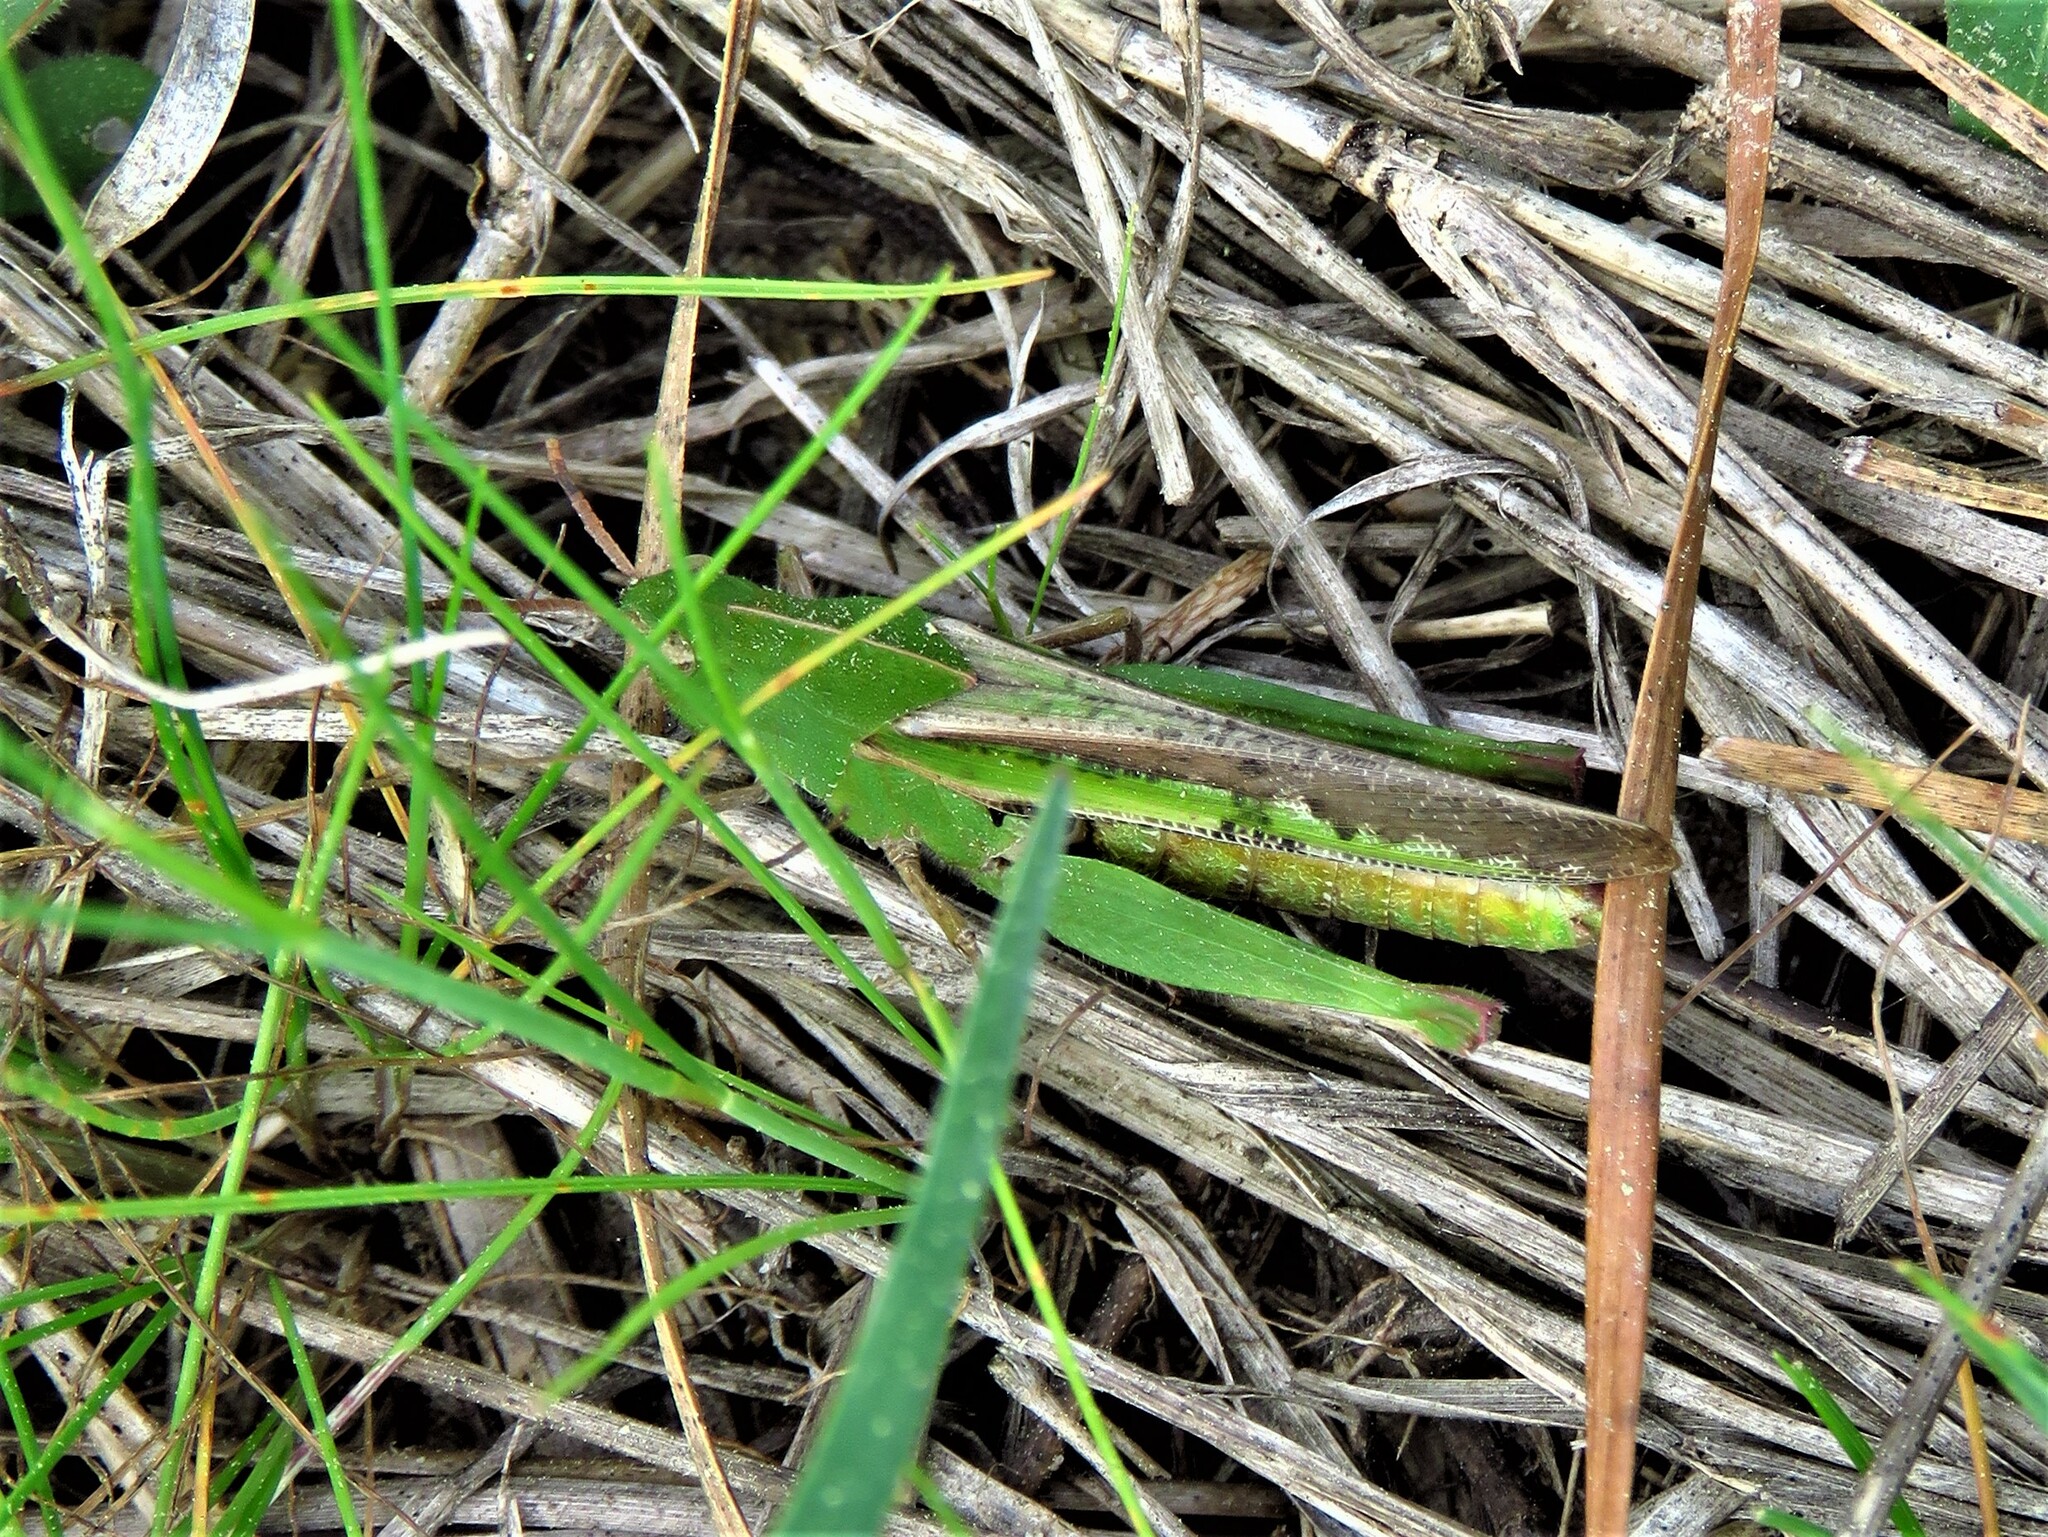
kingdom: Animalia
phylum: Arthropoda
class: Insecta
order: Orthoptera
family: Acrididae
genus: Chortophaga
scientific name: Chortophaga viridifasciata
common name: Green-striped grasshopper
